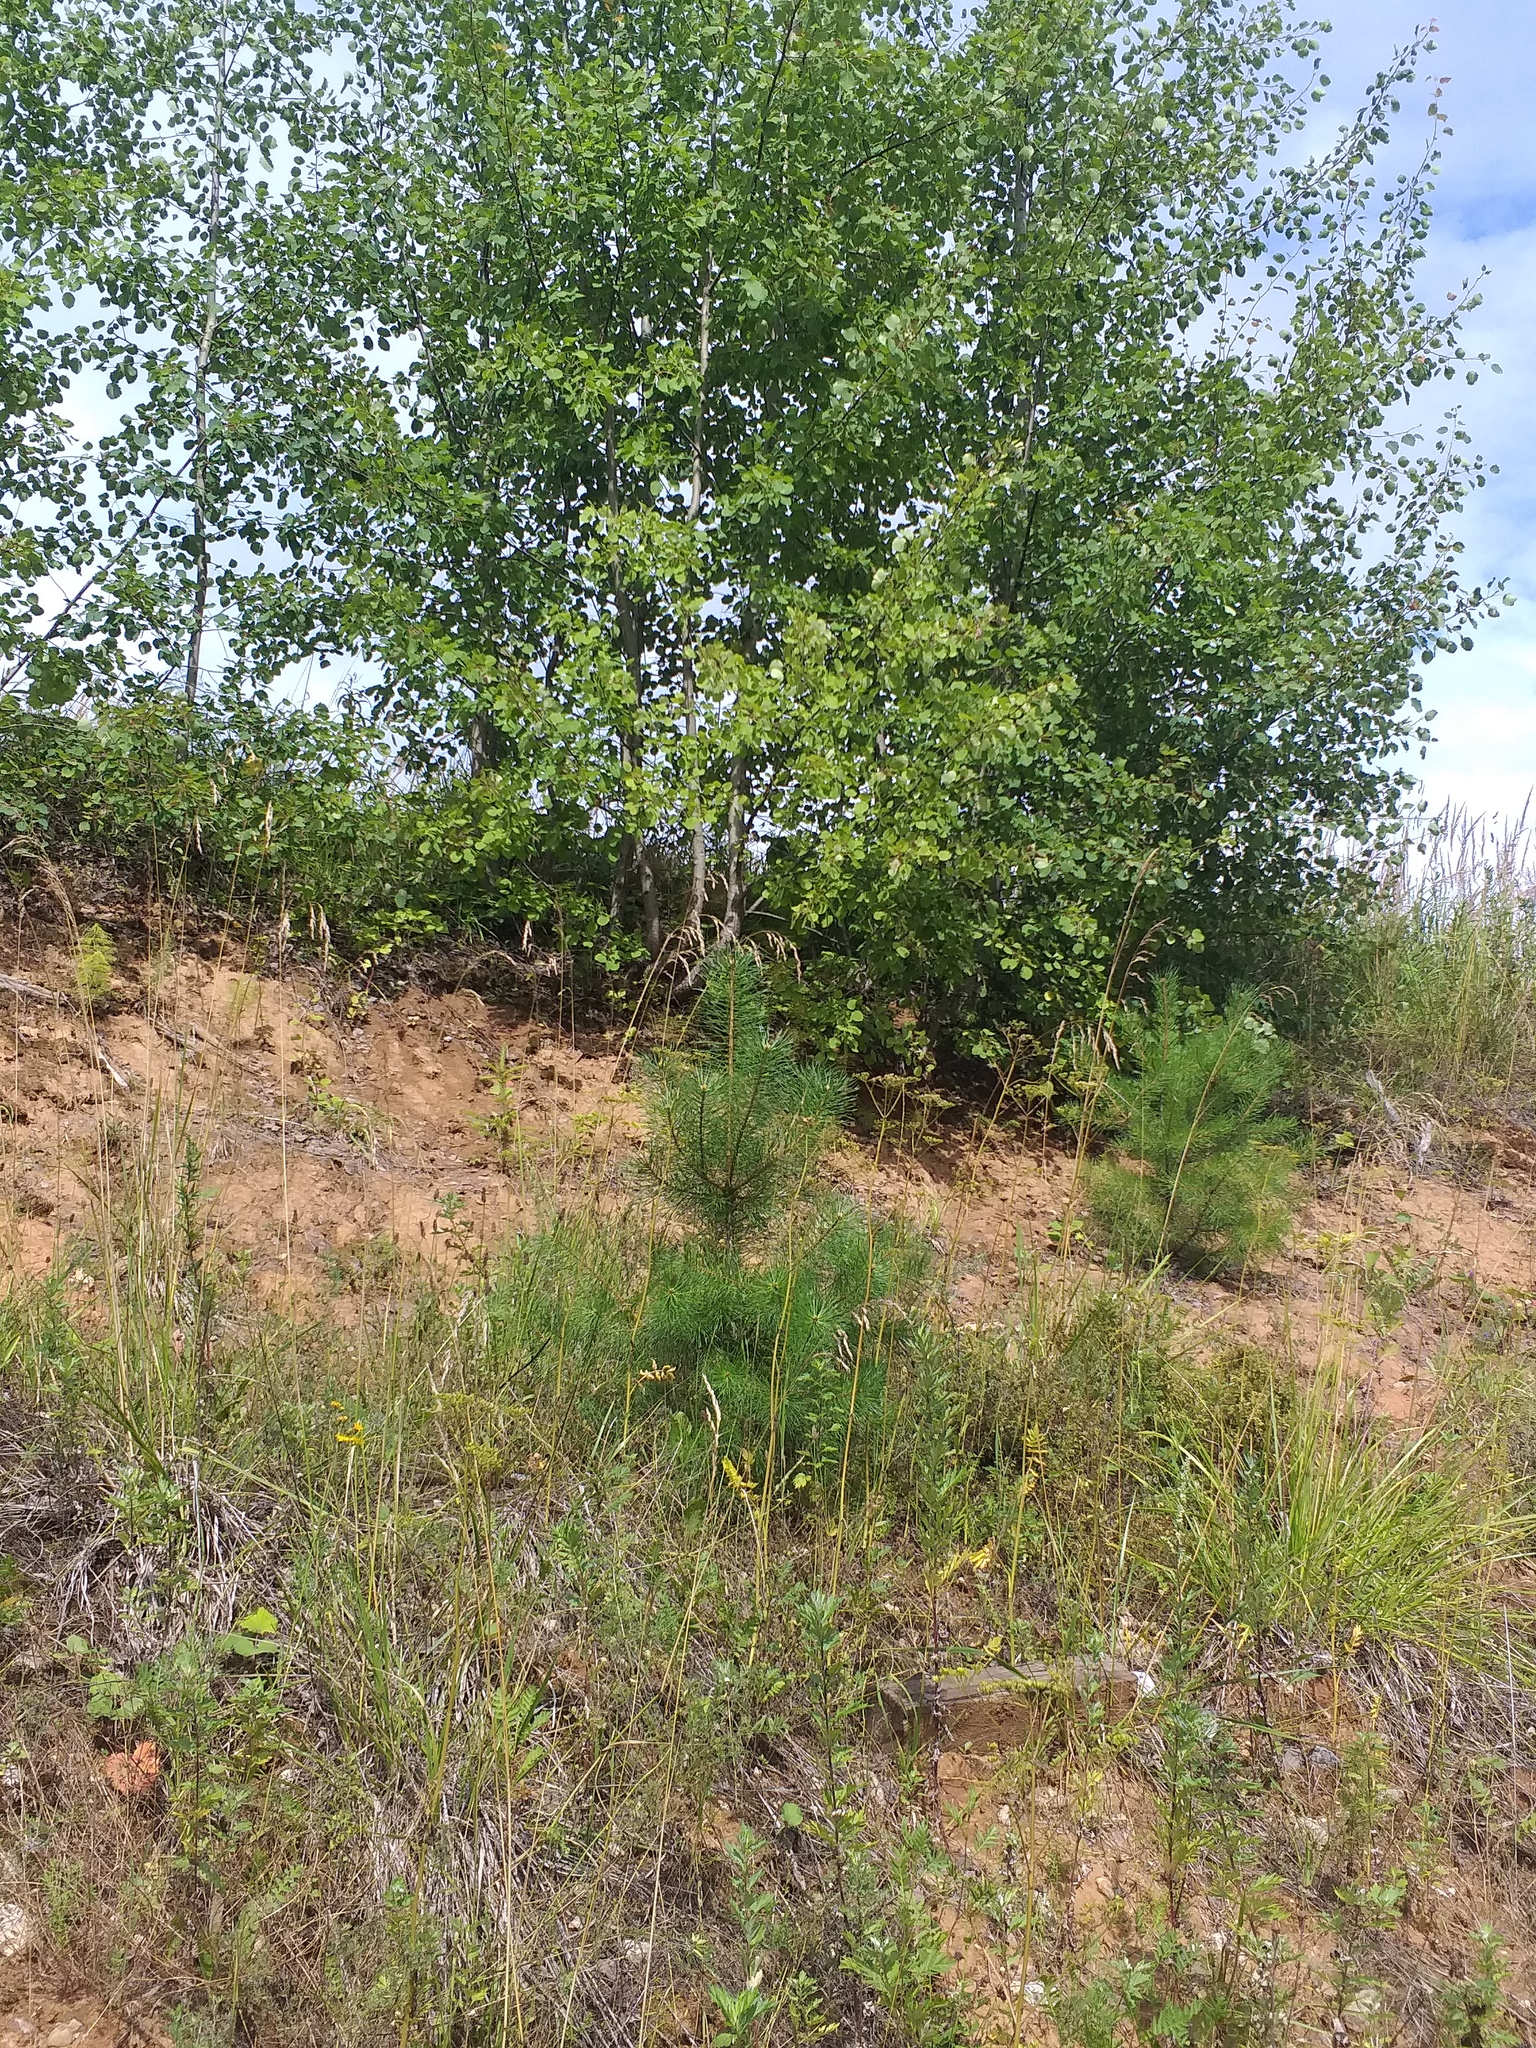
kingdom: Plantae
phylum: Tracheophyta
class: Pinopsida
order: Pinales
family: Pinaceae
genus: Pinus
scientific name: Pinus sylvestris
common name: Scots pine
